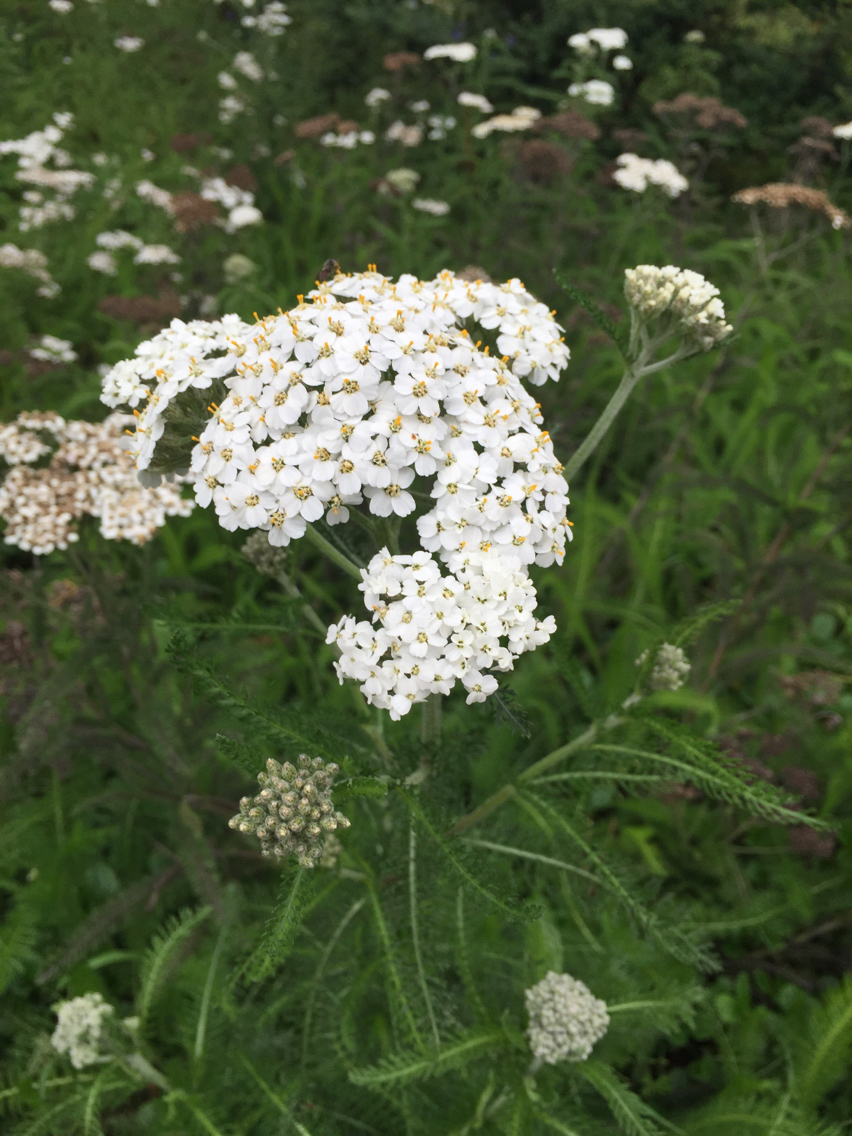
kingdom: Plantae
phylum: Tracheophyta
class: Magnoliopsida
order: Asterales
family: Asteraceae
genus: Achillea
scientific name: Achillea millefolium
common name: Yarrow
